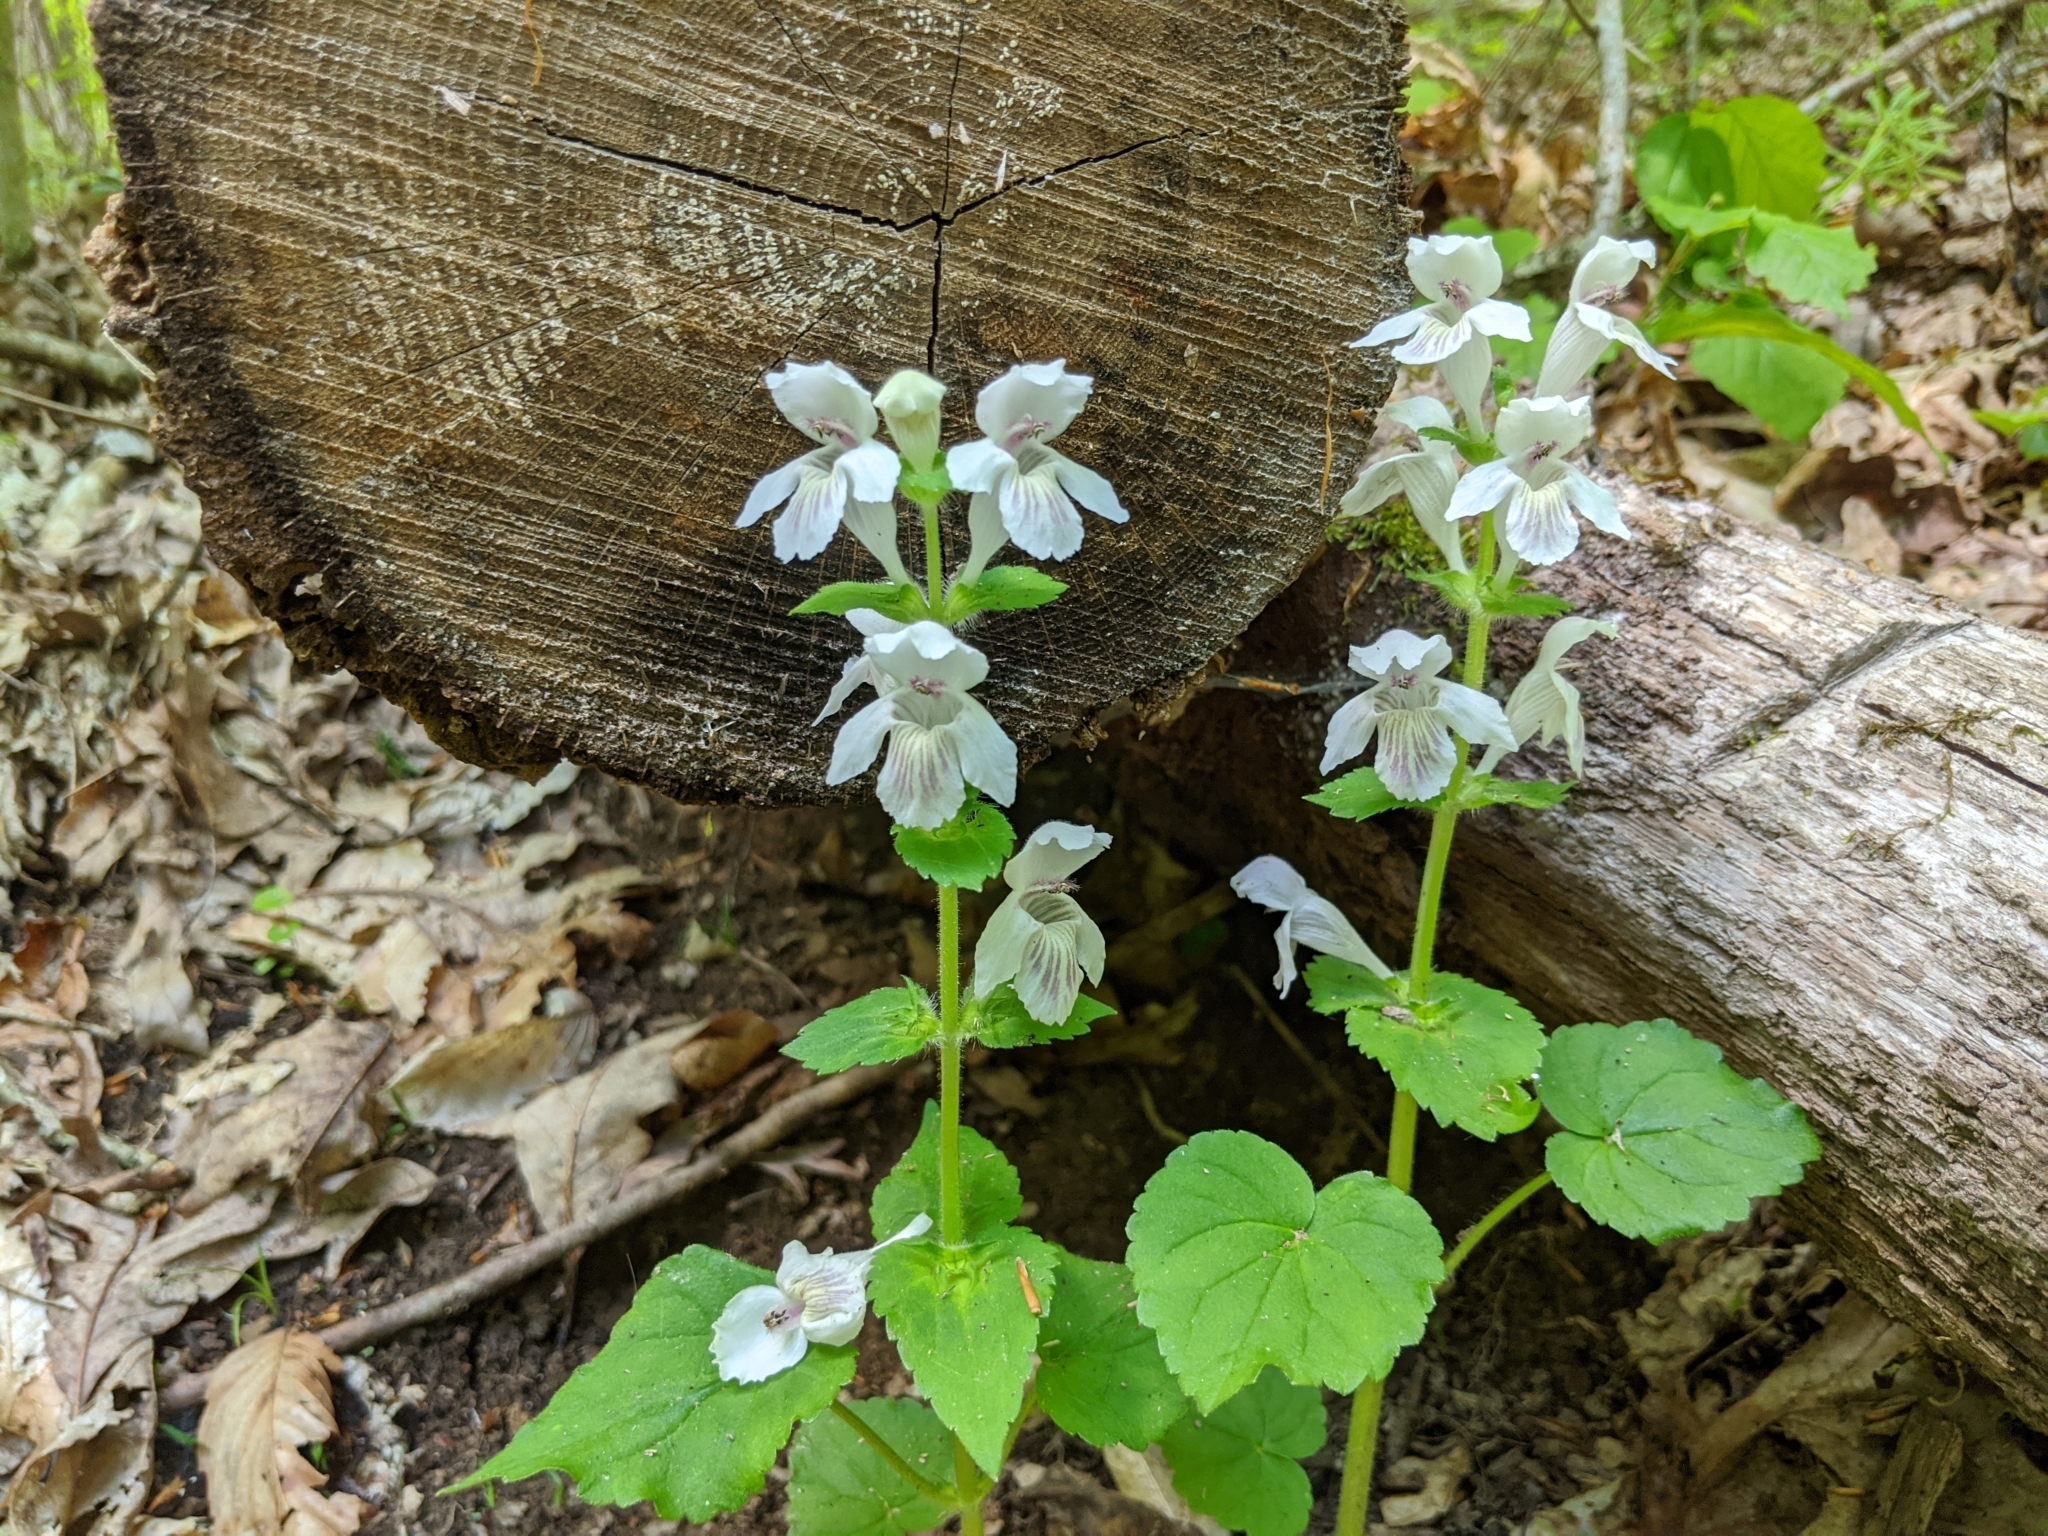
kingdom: Plantae
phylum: Tracheophyta
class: Magnoliopsida
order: Lamiales
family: Lamiaceae
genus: Synandra
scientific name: Synandra hispidula
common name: Synandra
